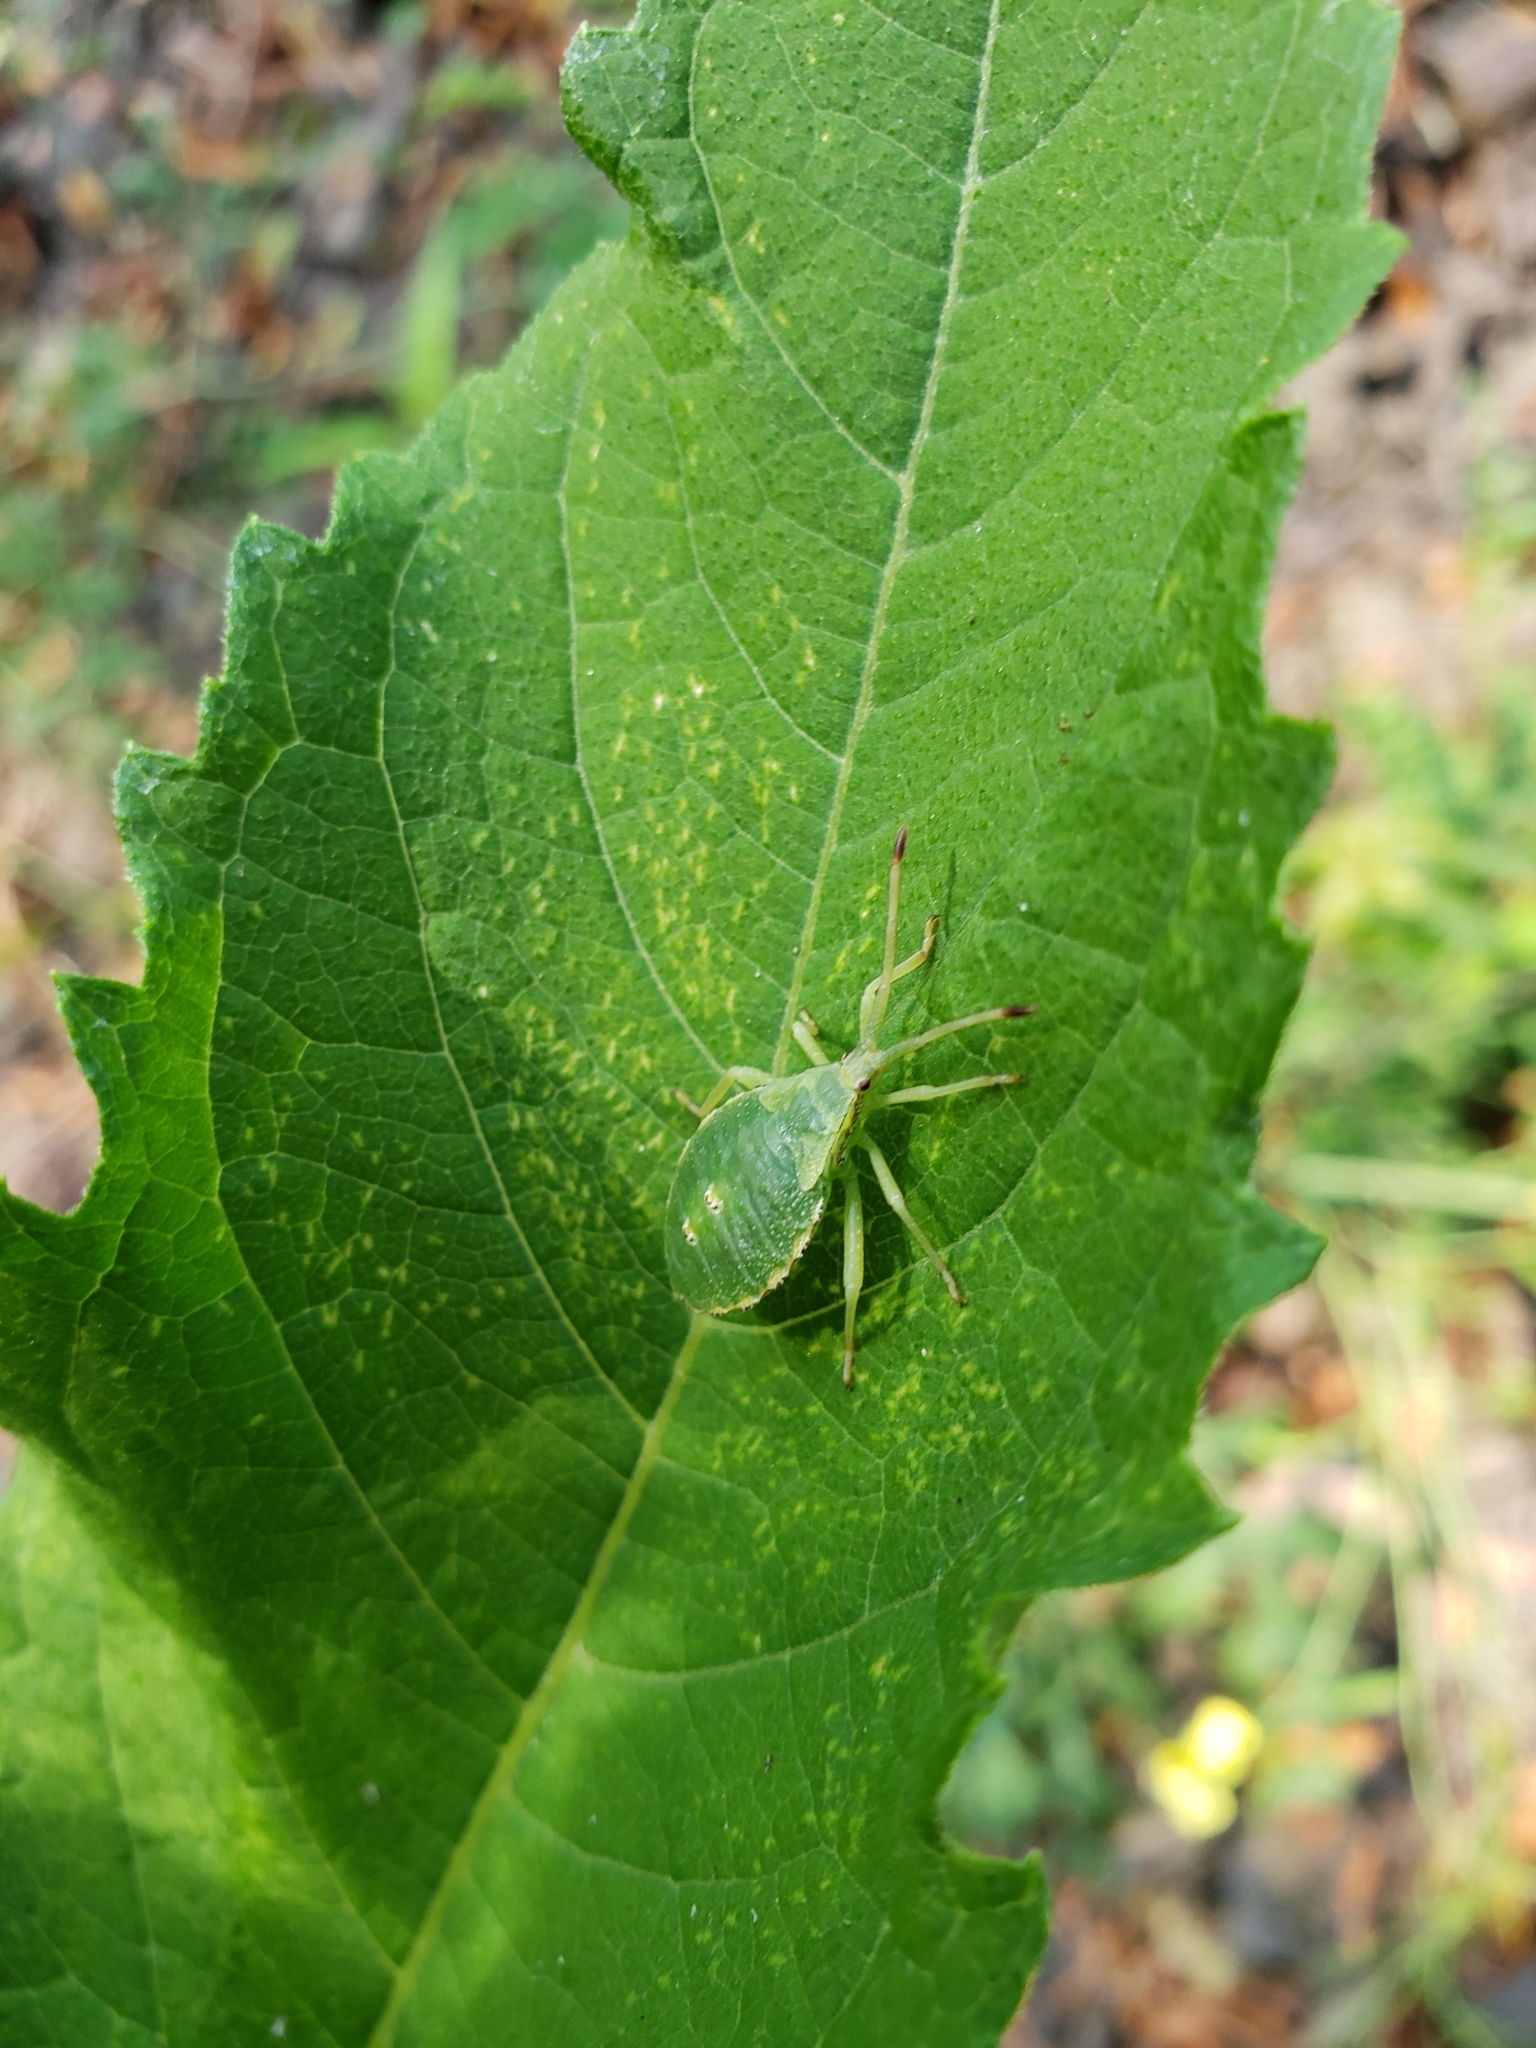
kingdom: Animalia
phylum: Arthropoda
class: Insecta
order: Hemiptera
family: Coreidae
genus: Piezogaster
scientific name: Piezogaster calcarator
